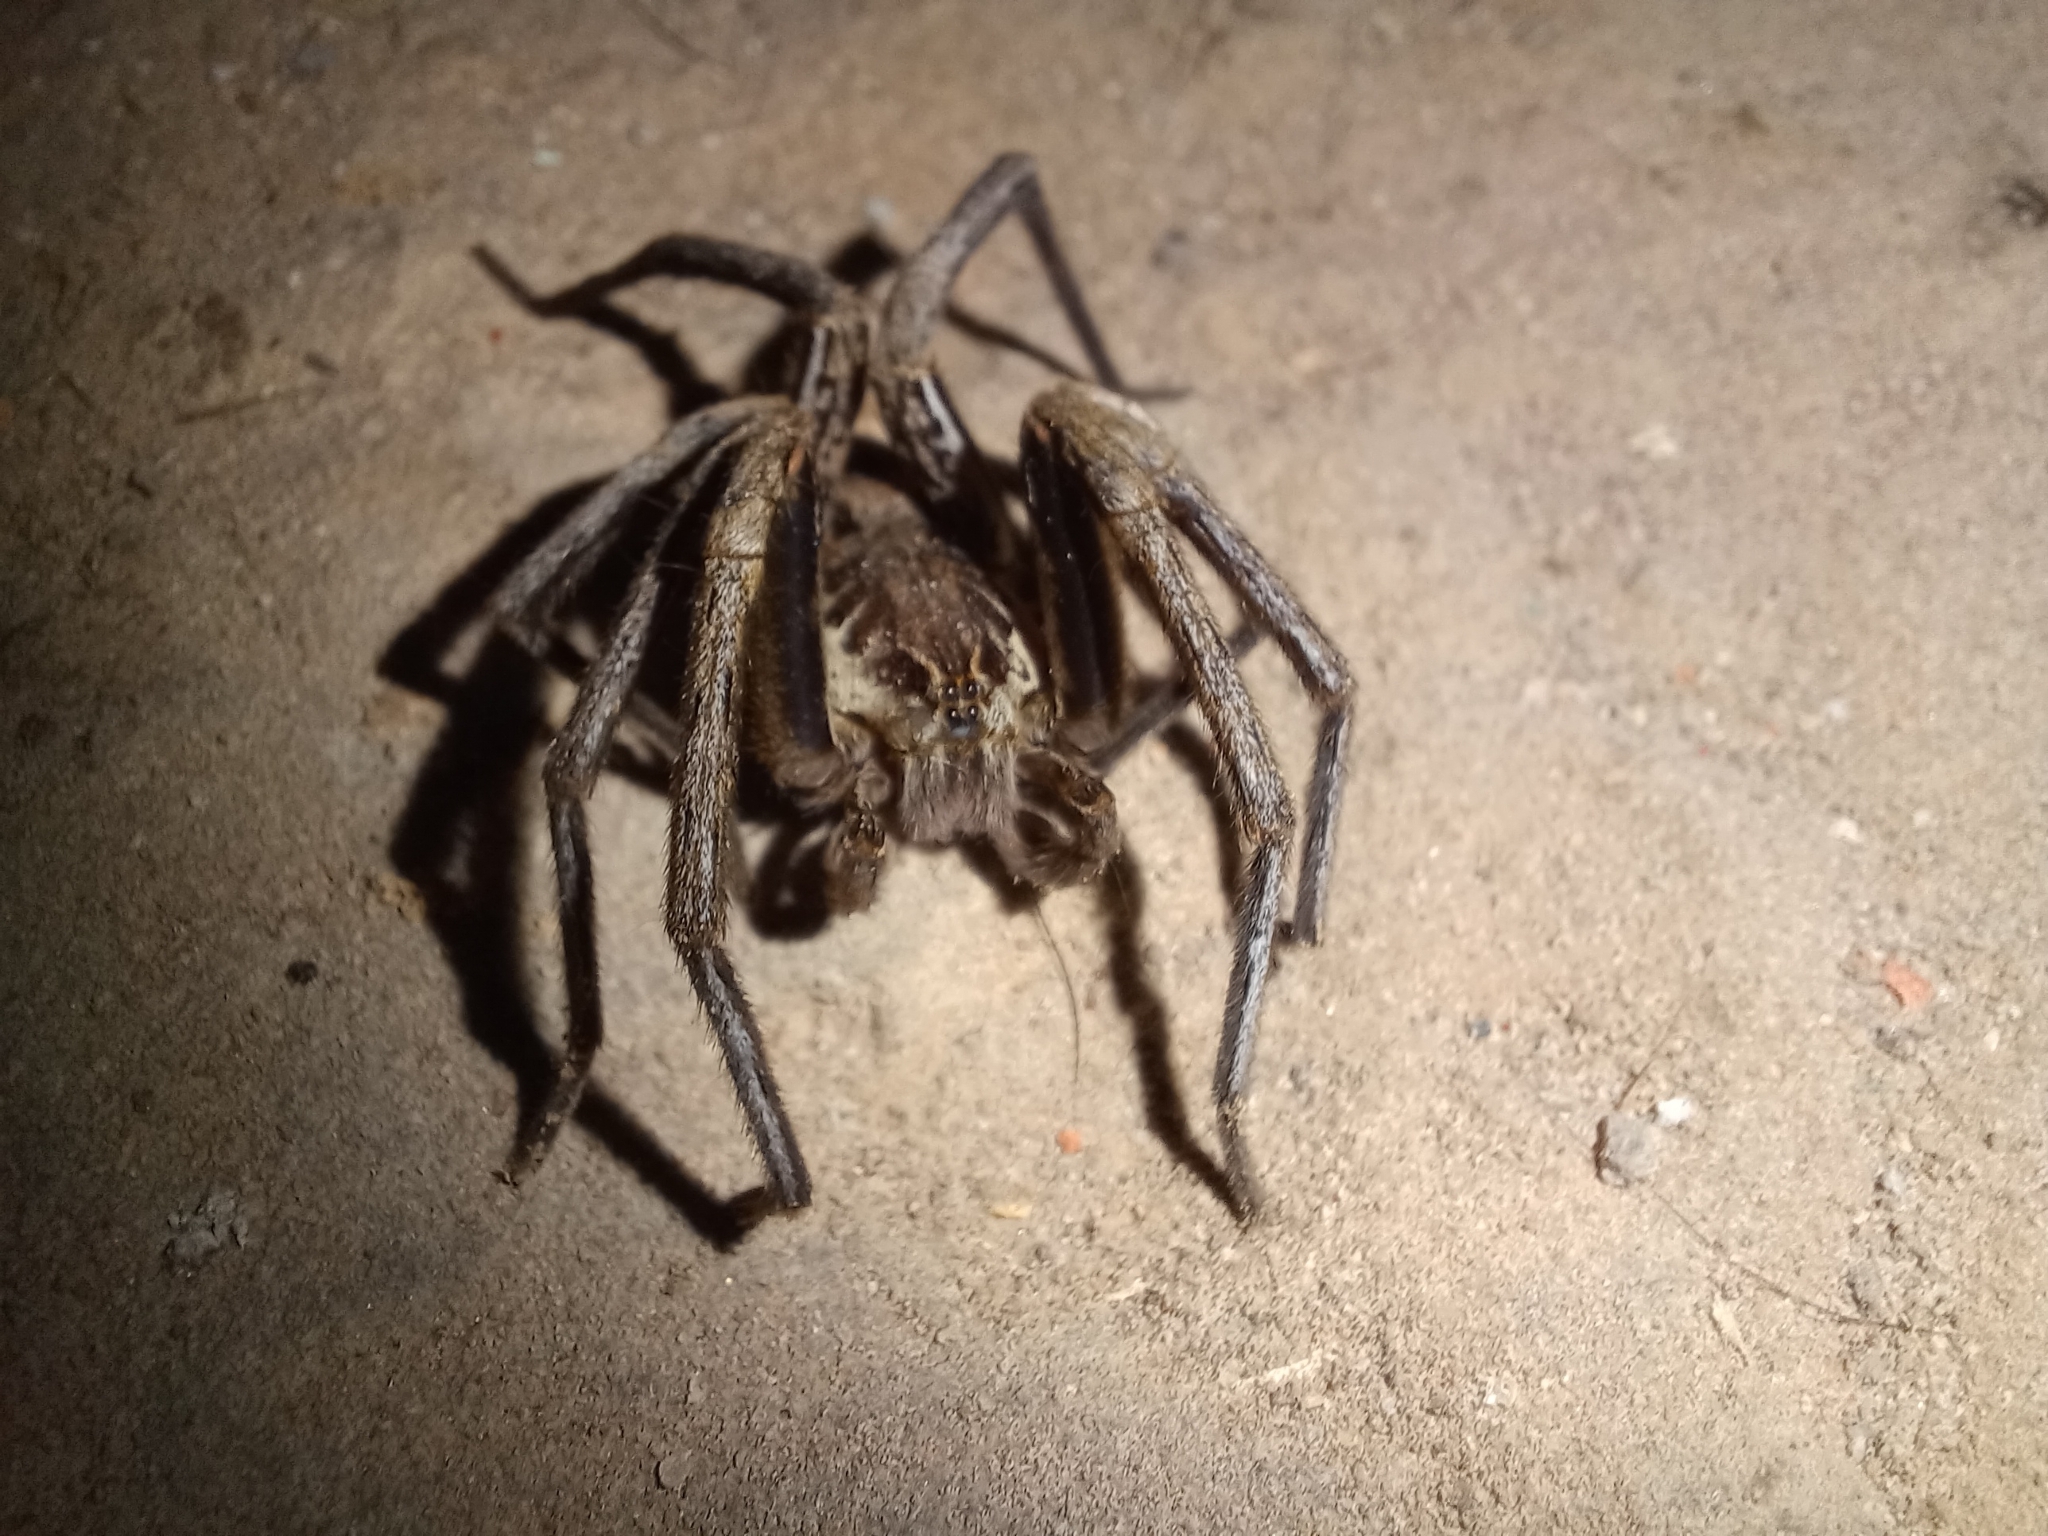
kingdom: Animalia
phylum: Arthropoda
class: Arachnida
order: Araneae
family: Ctenidae
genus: Ancylometes
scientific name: Ancylometes bogotensis
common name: Wandering spiders
